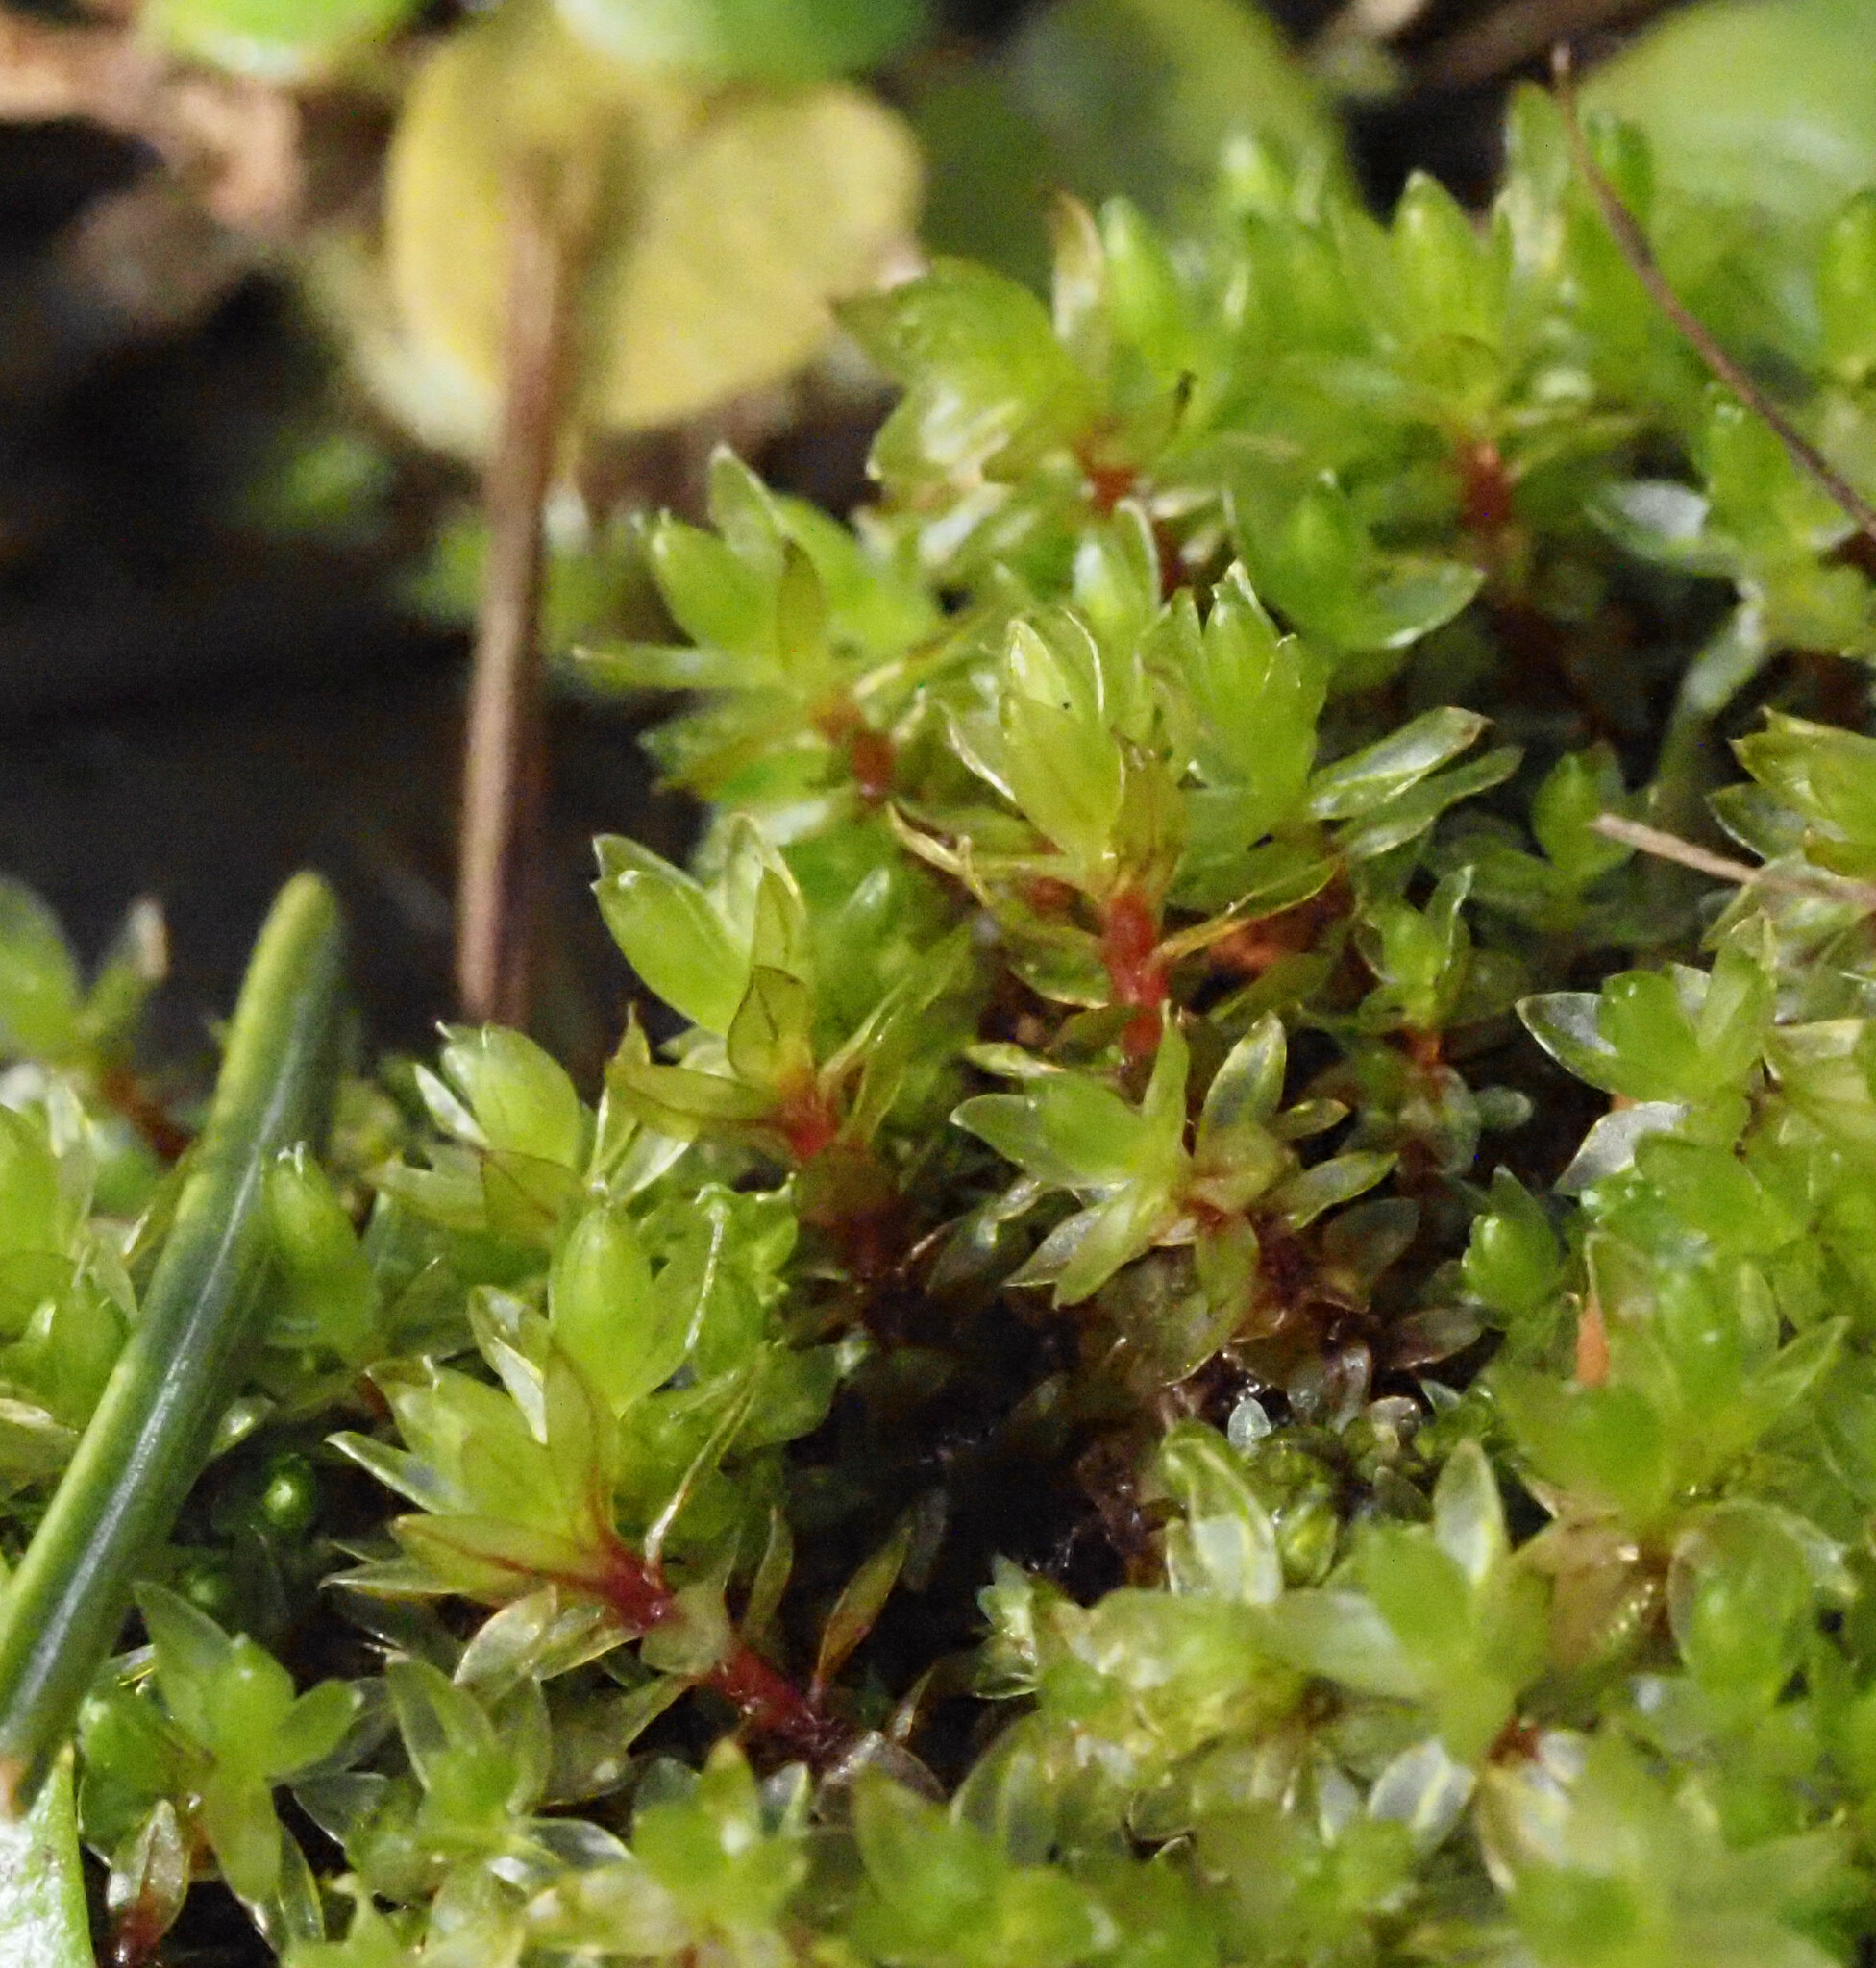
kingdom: Plantae
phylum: Bryophyta
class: Bryopsida
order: Bryales
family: Bryaceae
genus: Ptychostomum
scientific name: Ptychostomum pseudotriquetrum
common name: Long-leaved thread moss
